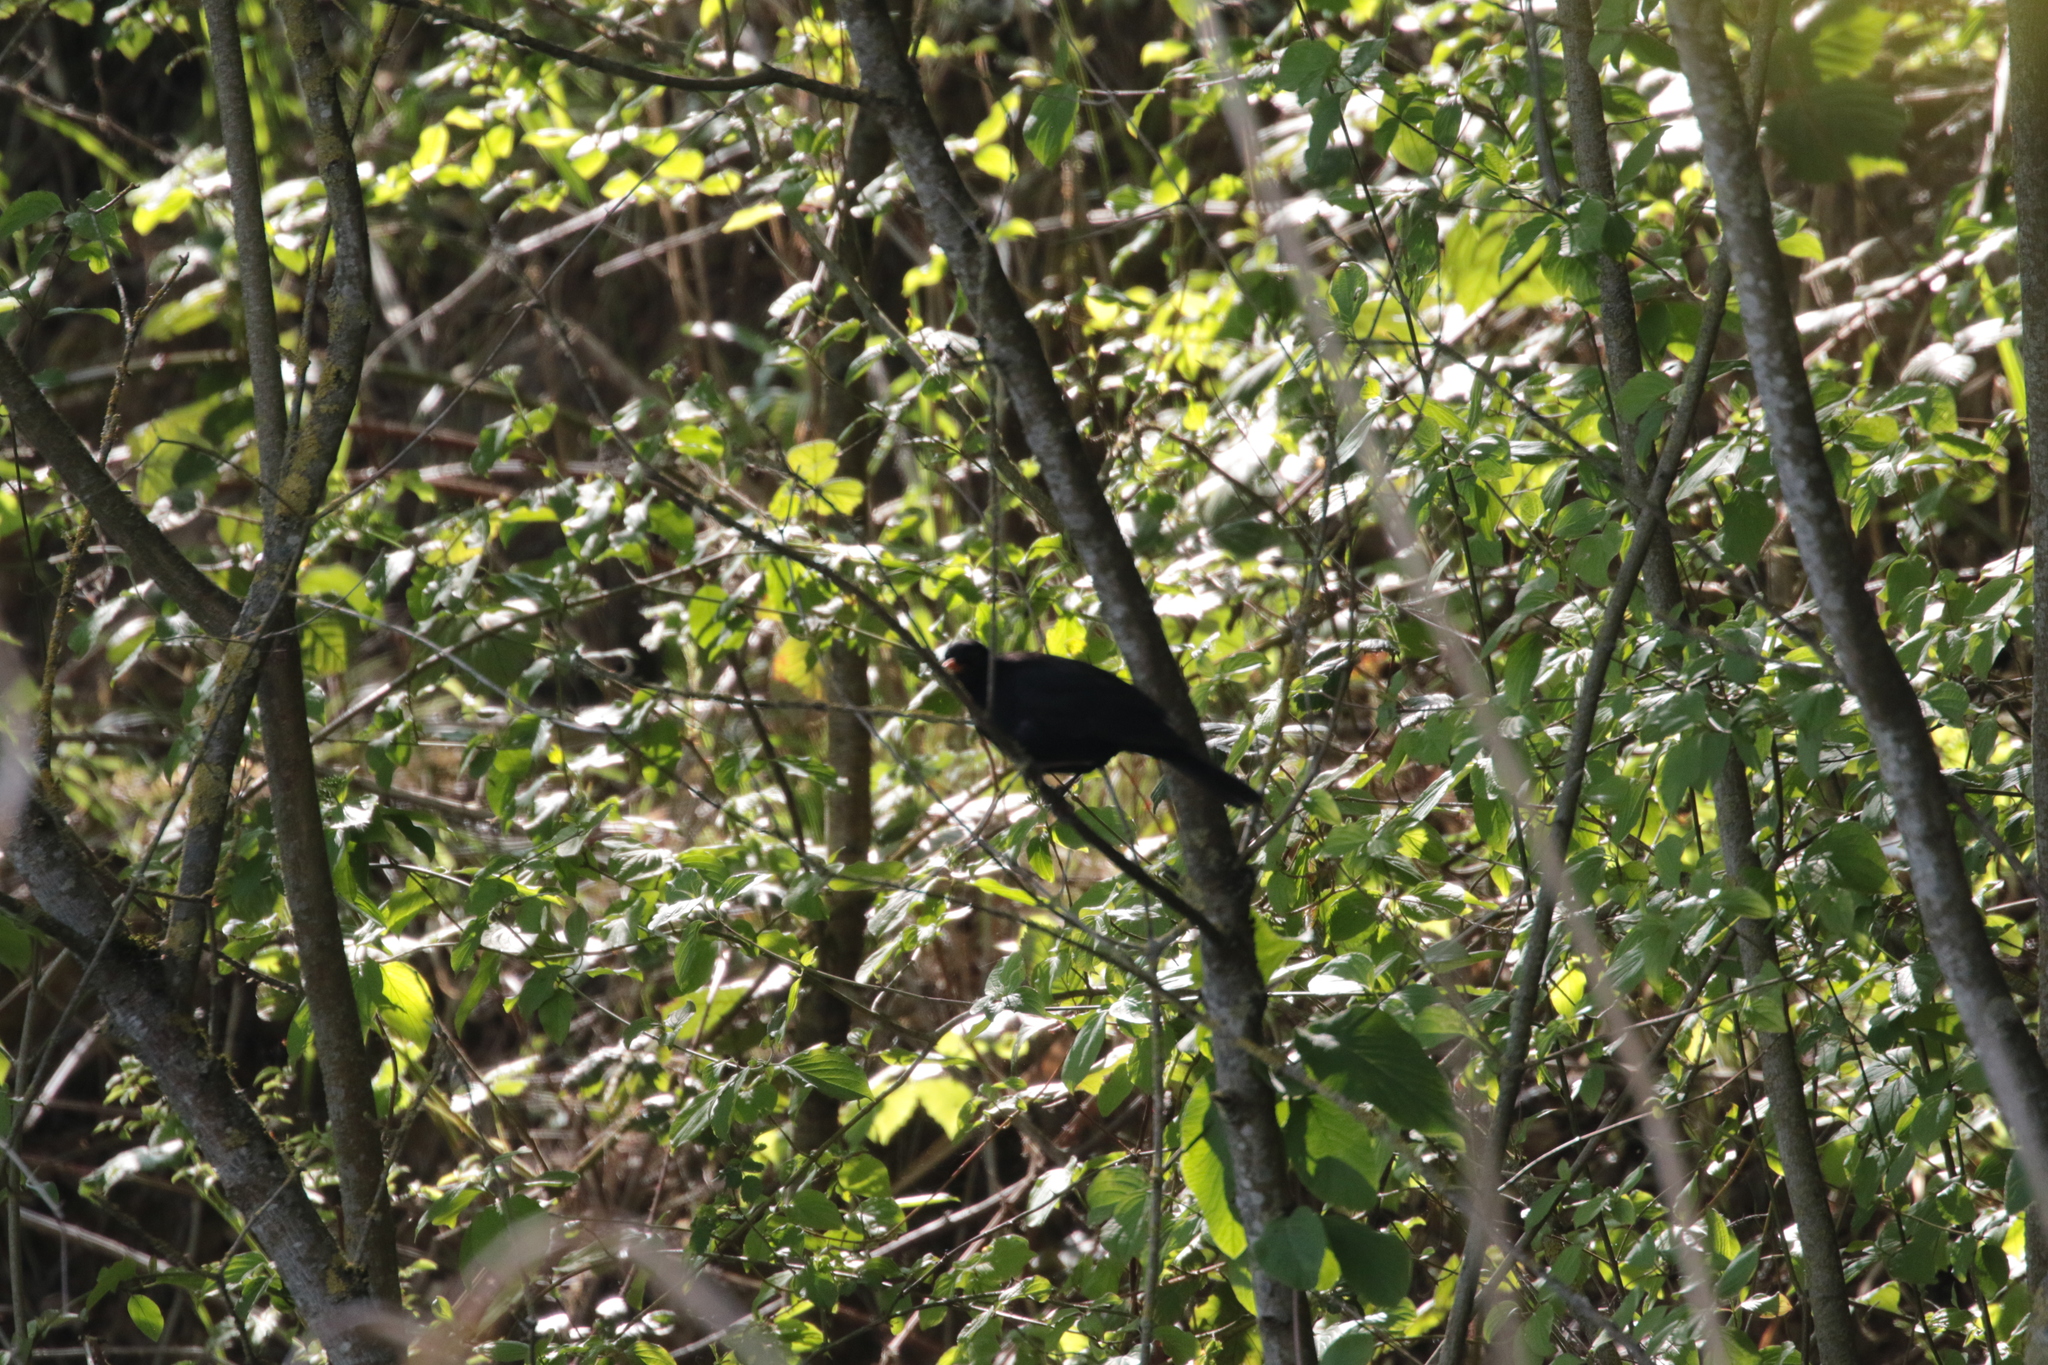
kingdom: Animalia
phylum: Chordata
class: Aves
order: Passeriformes
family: Turdidae
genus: Turdus
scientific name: Turdus merula
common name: Common blackbird
